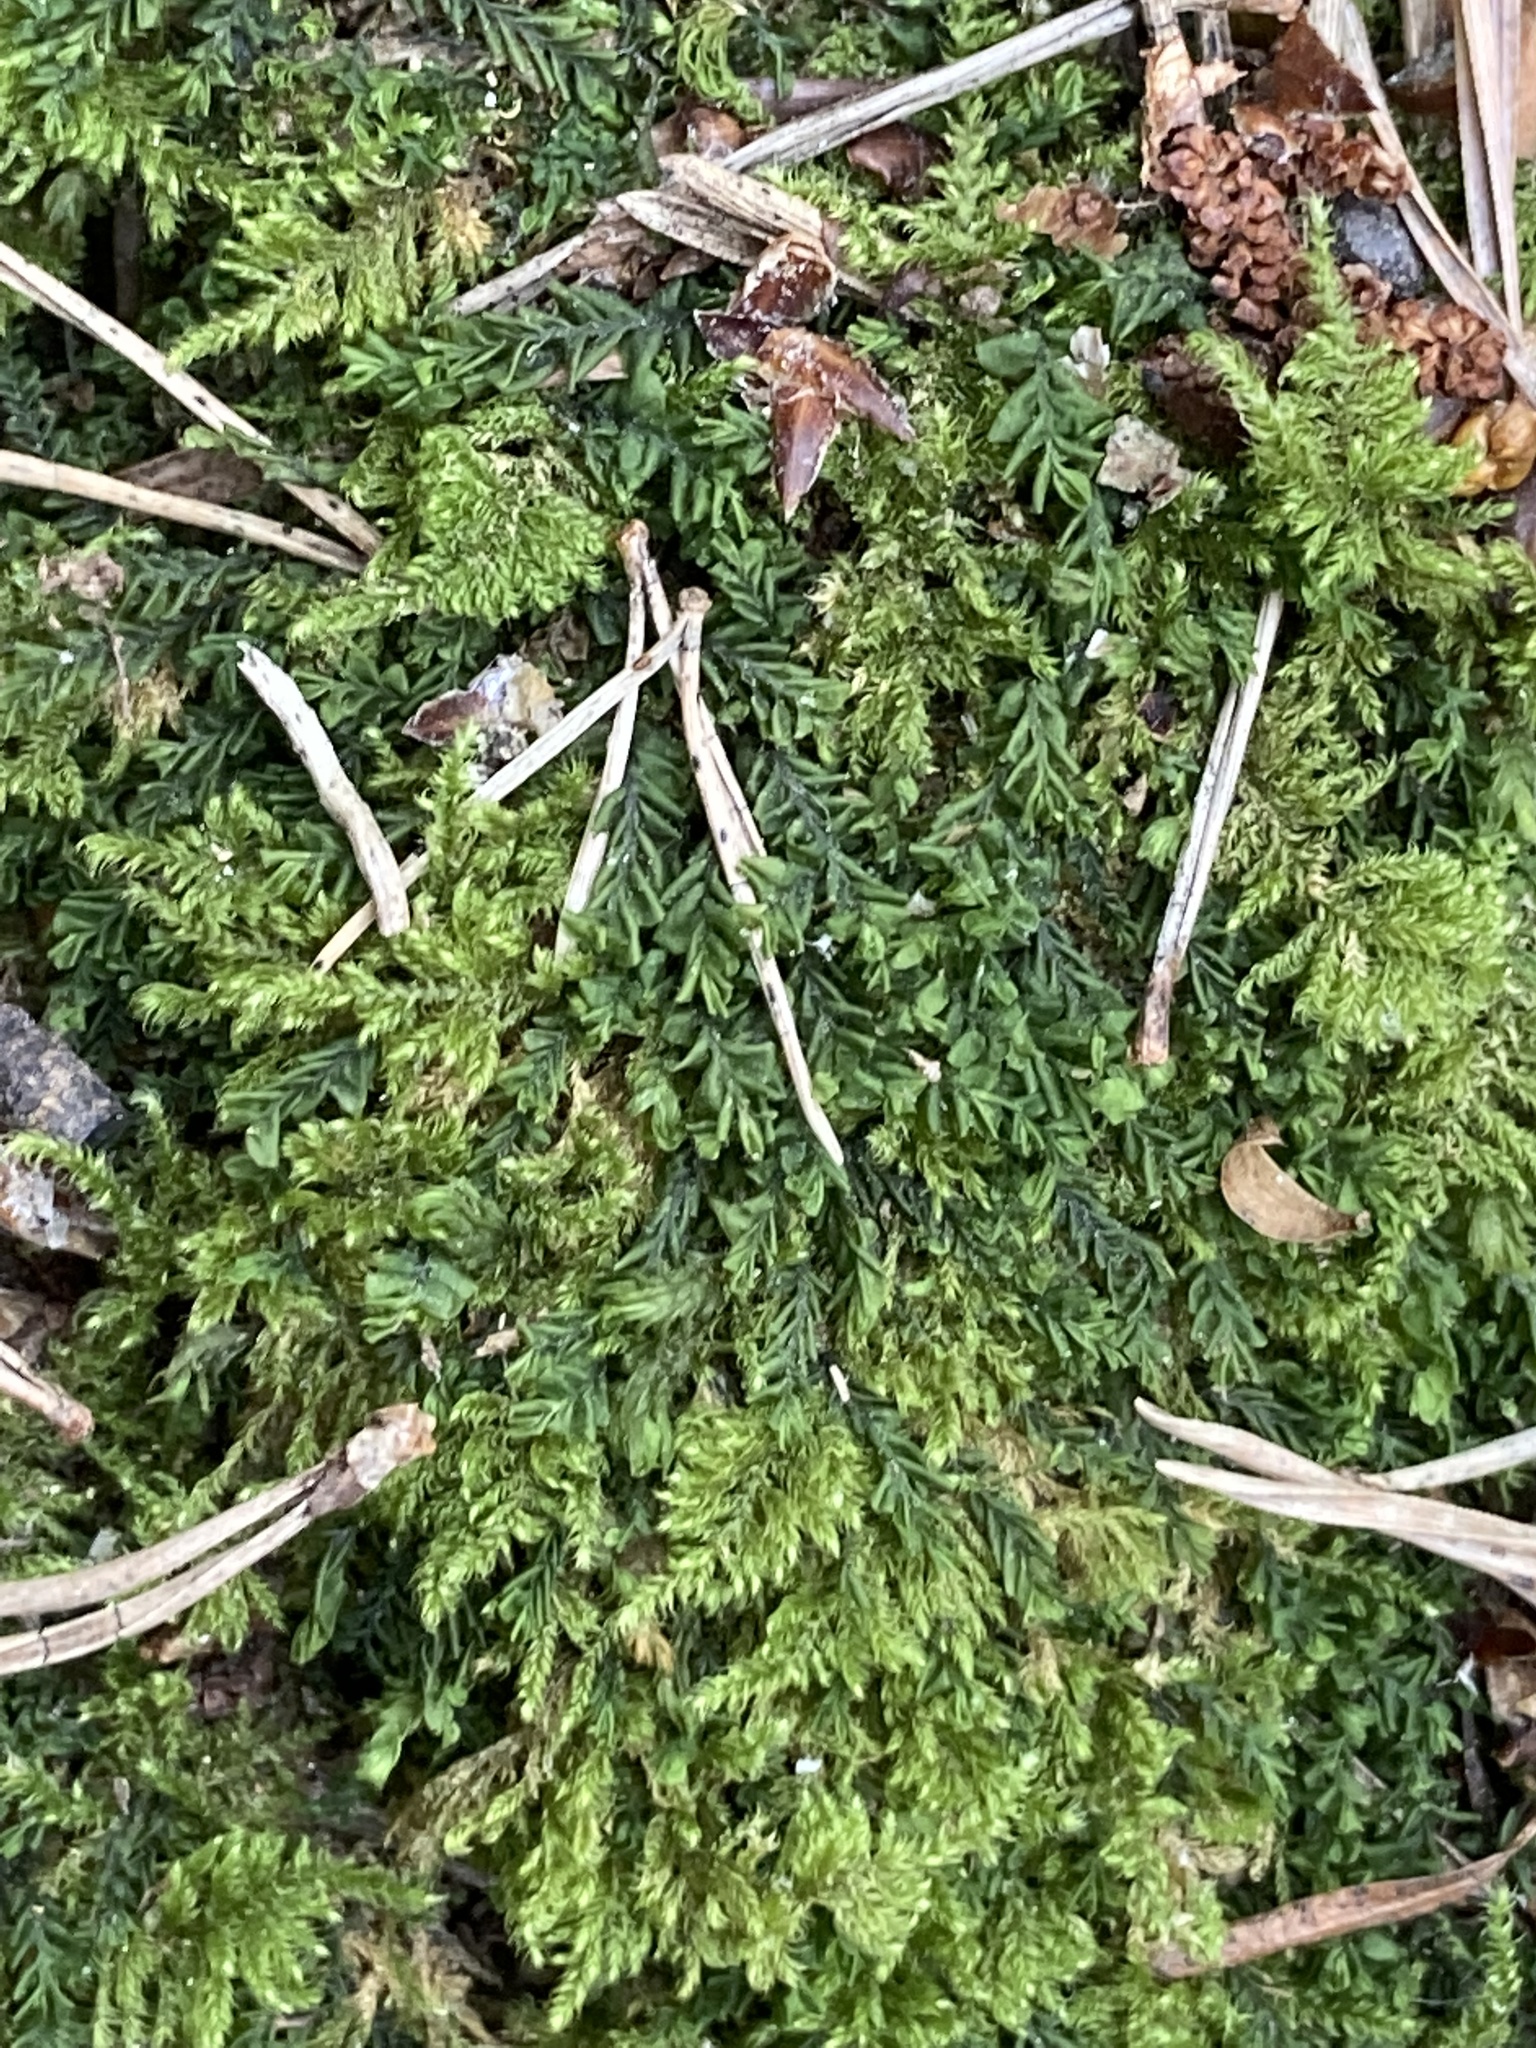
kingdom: Plantae
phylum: Marchantiophyta
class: Jungermanniopsida
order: Jungermanniales
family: Plagiochilaceae
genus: Plagiochila
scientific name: Plagiochila porelloides
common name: Lesser featherwort
